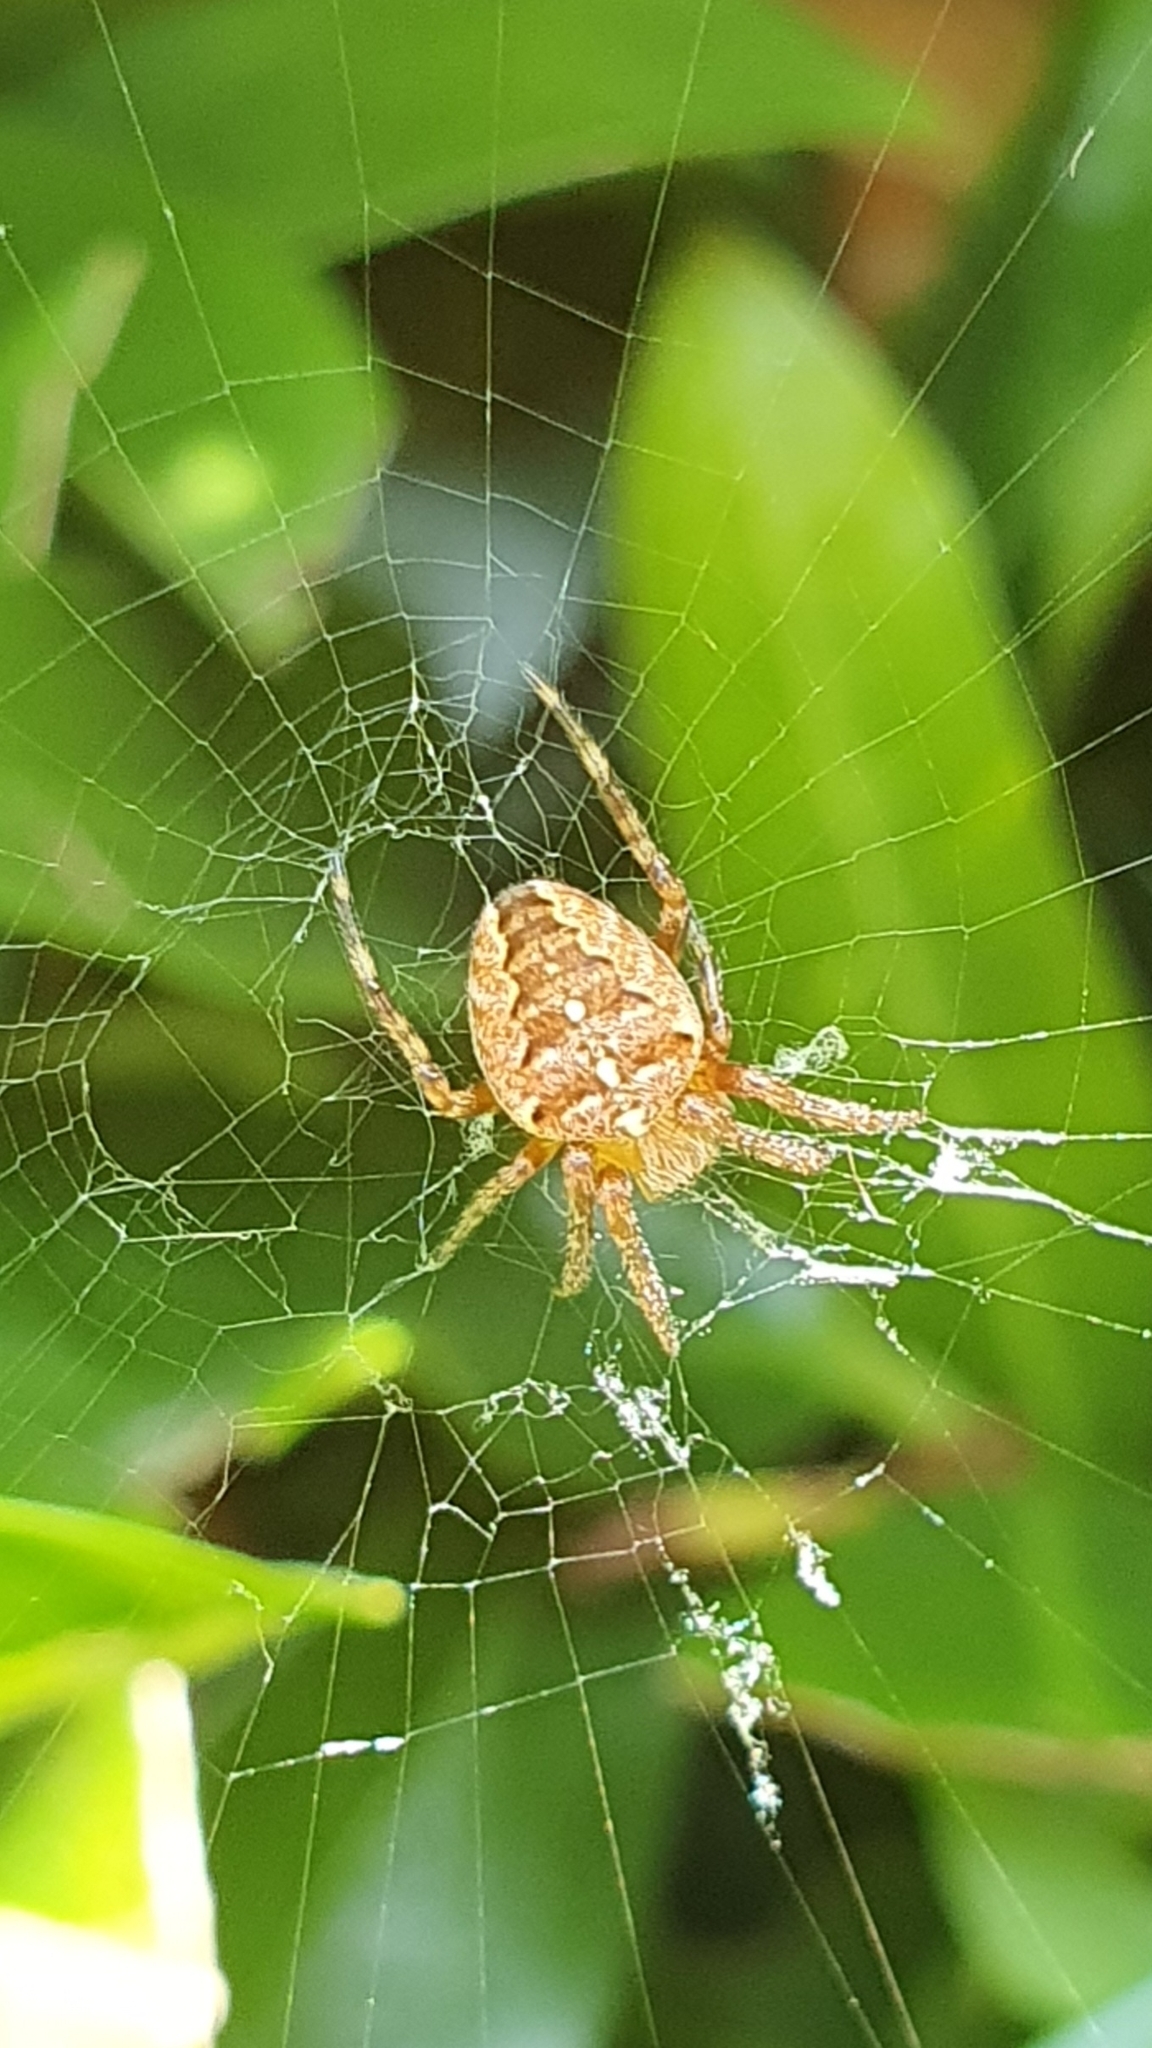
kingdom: Animalia
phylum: Arthropoda
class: Arachnida
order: Araneae
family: Araneidae
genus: Araneus
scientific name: Araneus diadematus
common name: Cross orbweaver
